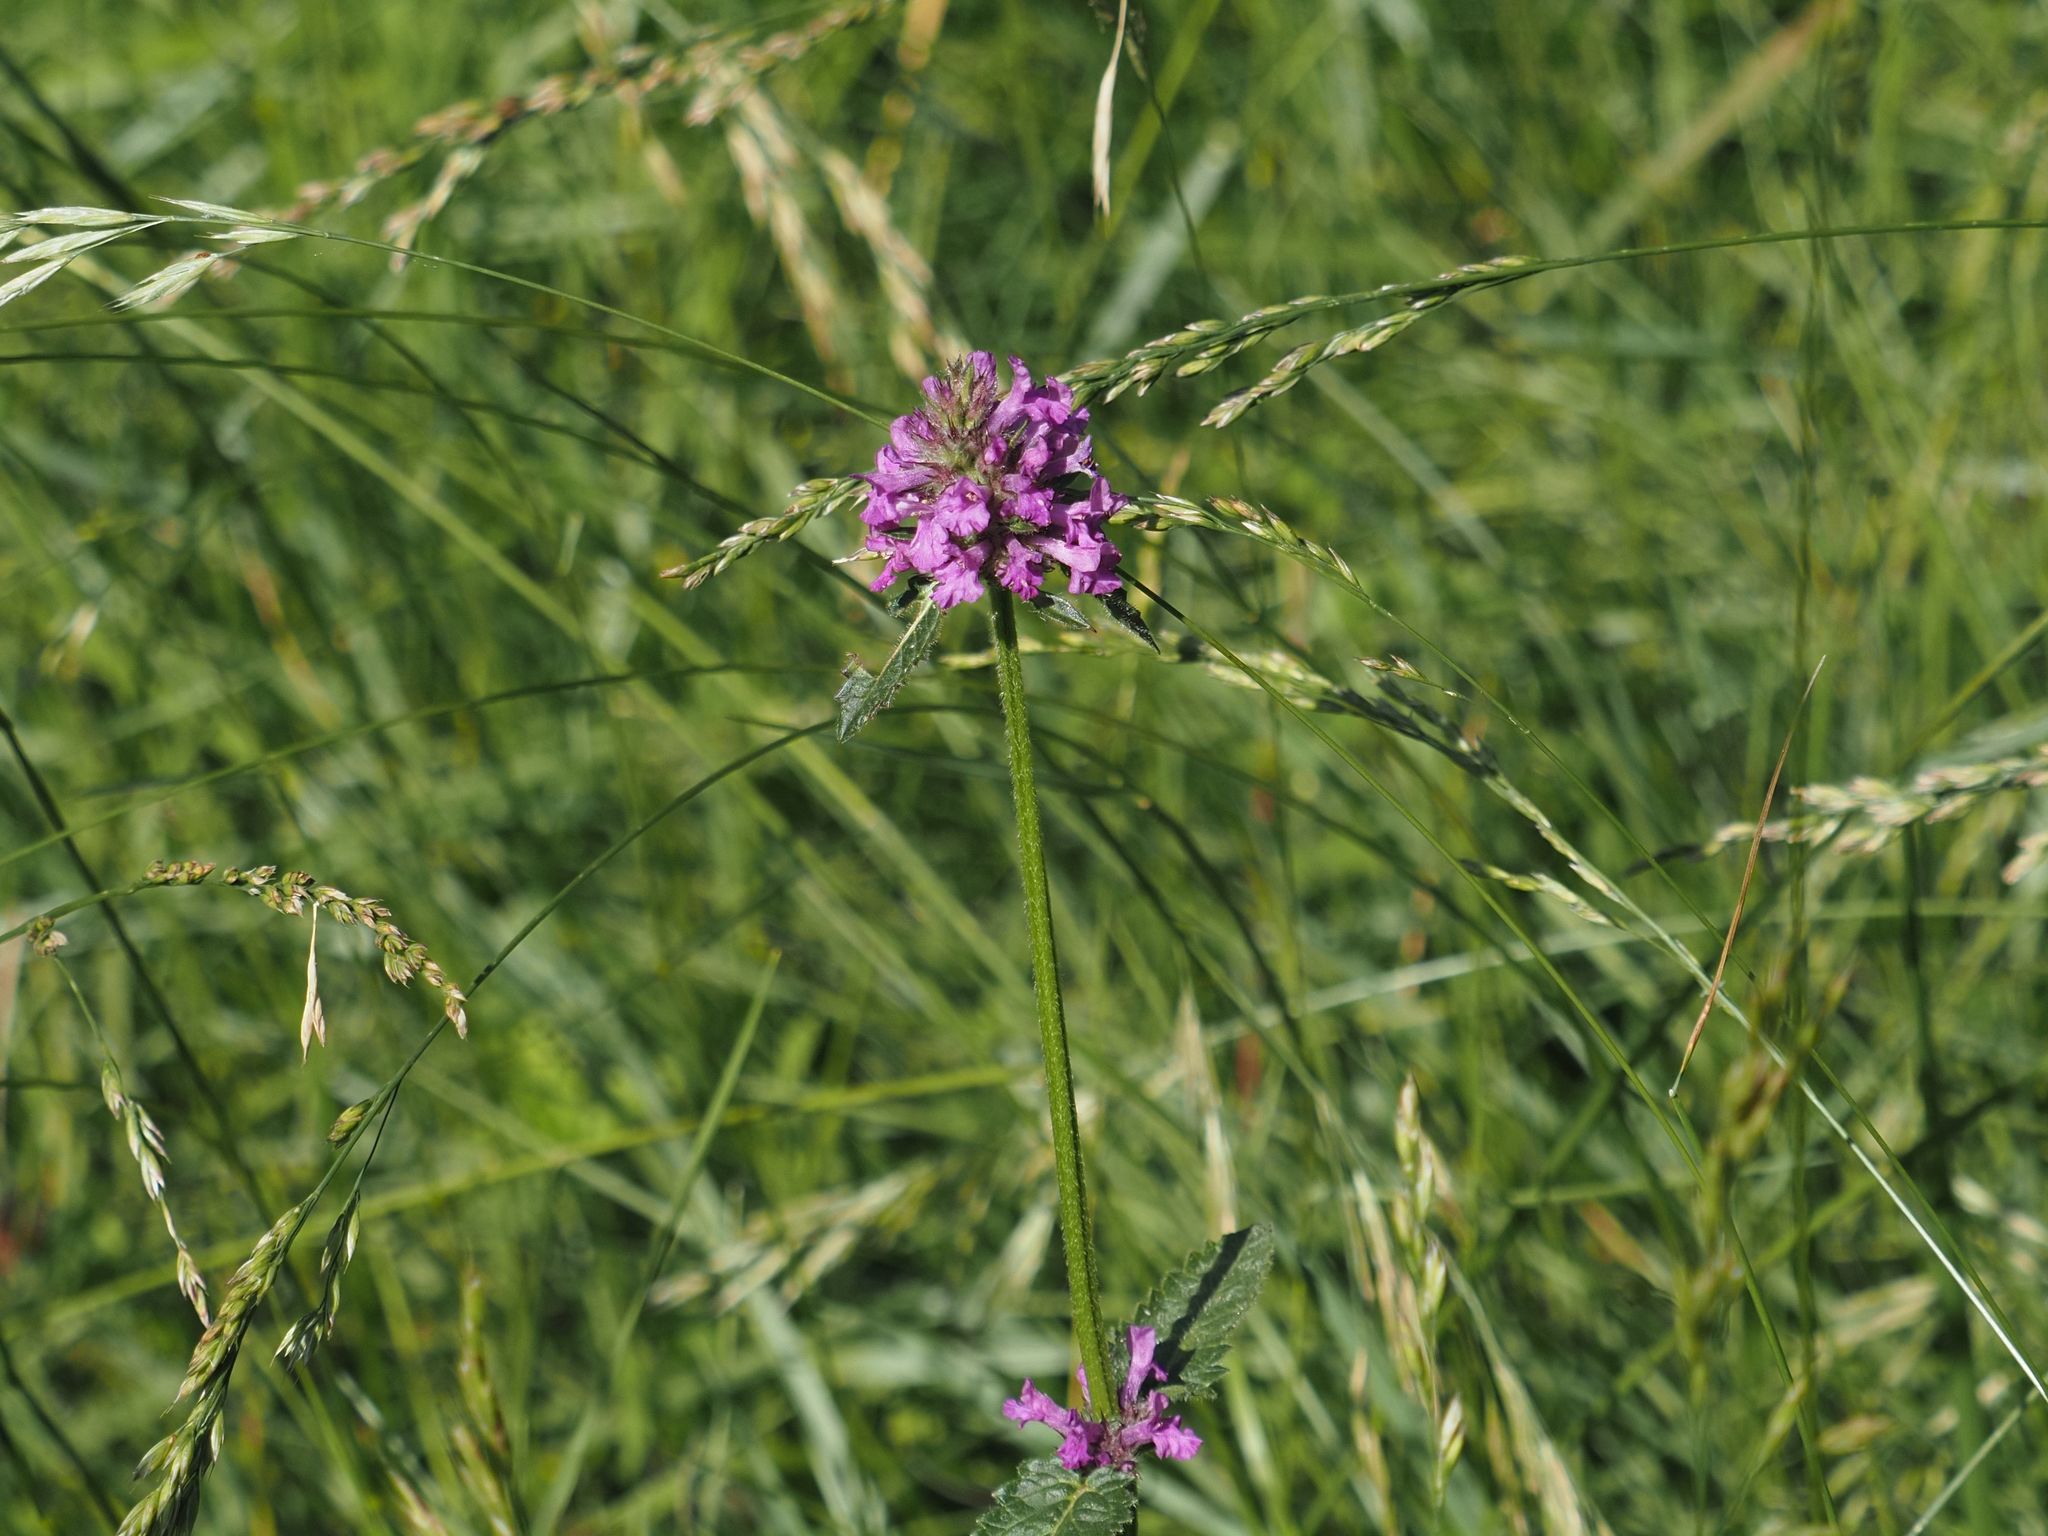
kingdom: Plantae
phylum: Tracheophyta
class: Magnoliopsida
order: Lamiales
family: Lamiaceae
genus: Betonica
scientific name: Betonica officinalis
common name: Bishop's-wort
